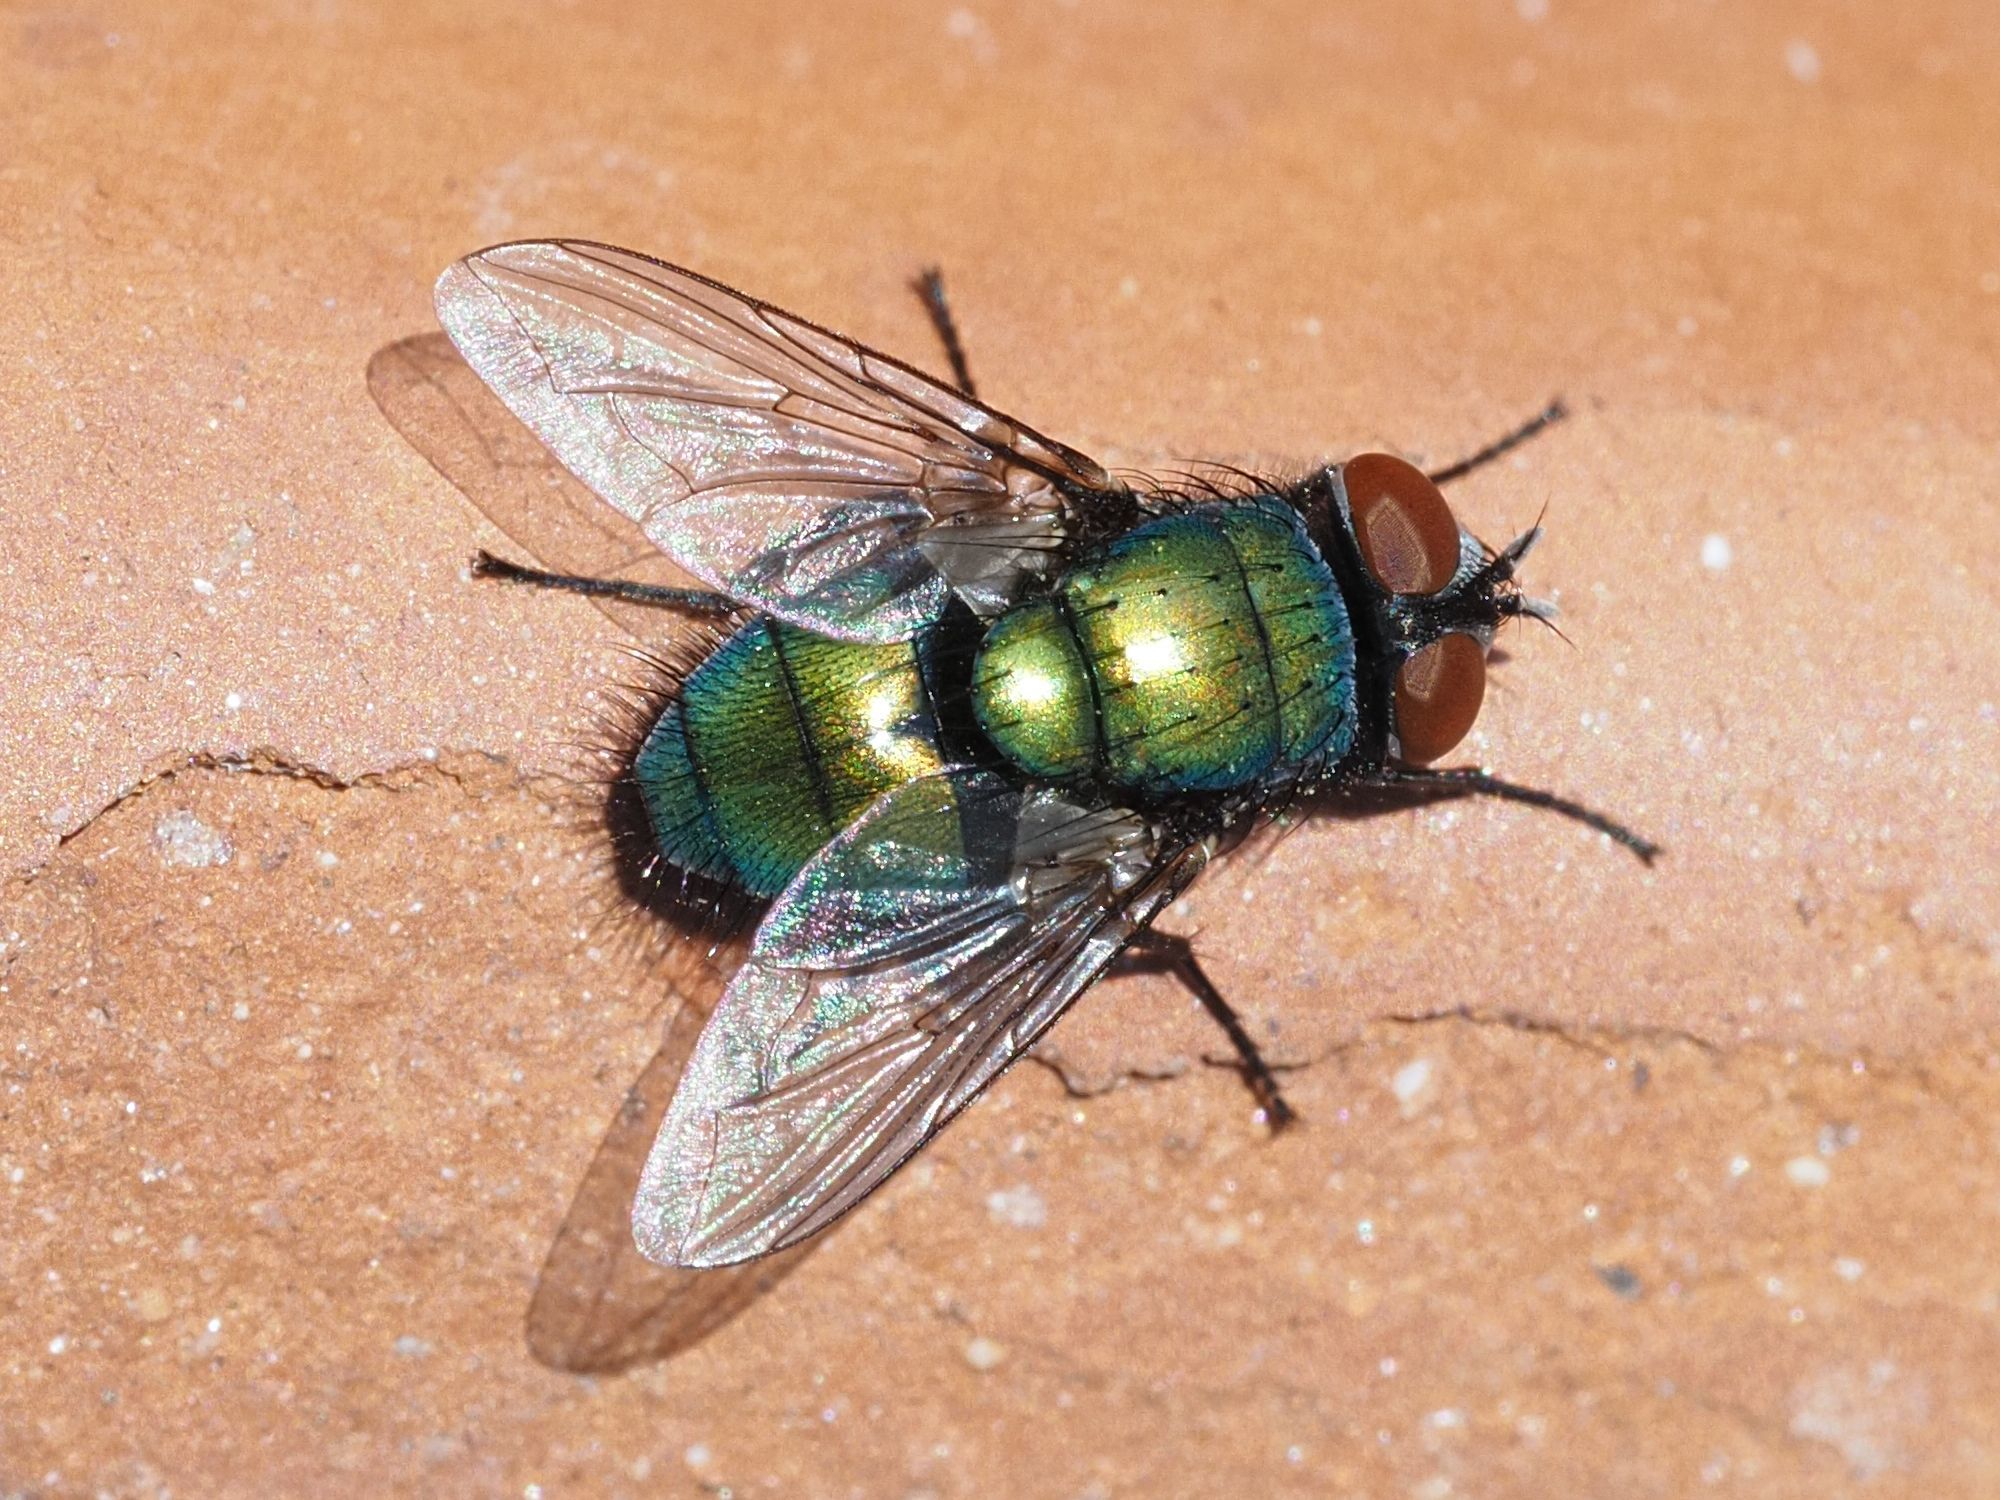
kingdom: Animalia
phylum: Arthropoda
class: Insecta
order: Diptera
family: Calliphoridae
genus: Lucilia
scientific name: Lucilia sericata
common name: Blow fly
